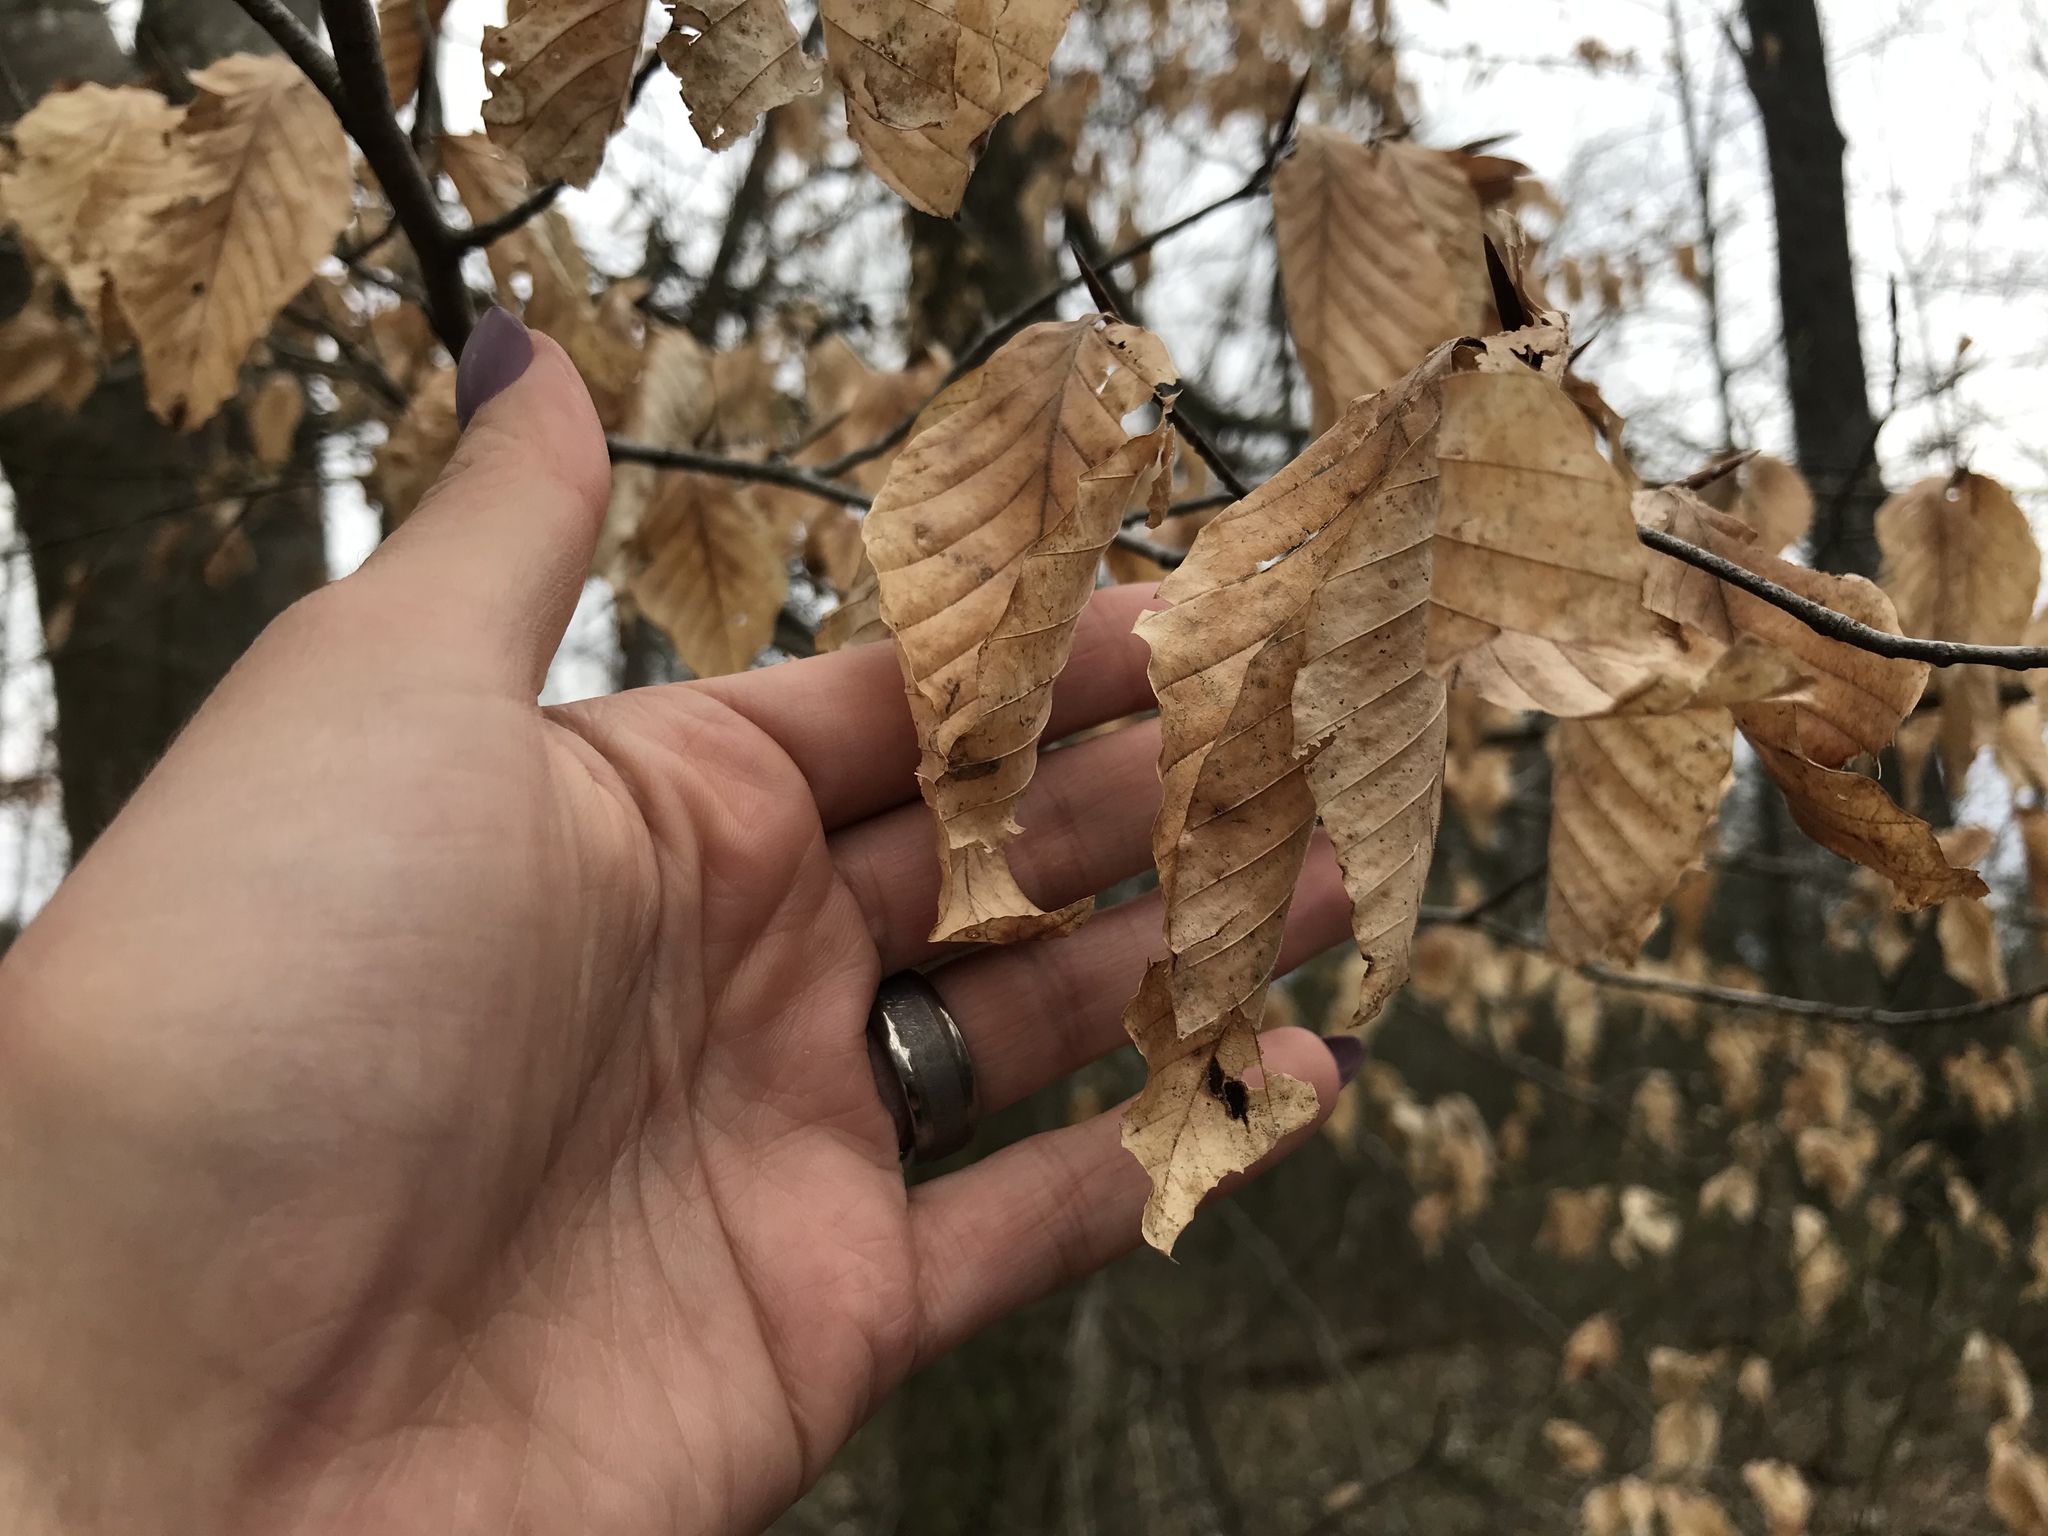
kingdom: Plantae
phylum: Tracheophyta
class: Magnoliopsida
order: Fagales
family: Fagaceae
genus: Fagus
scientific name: Fagus grandifolia
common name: American beech
